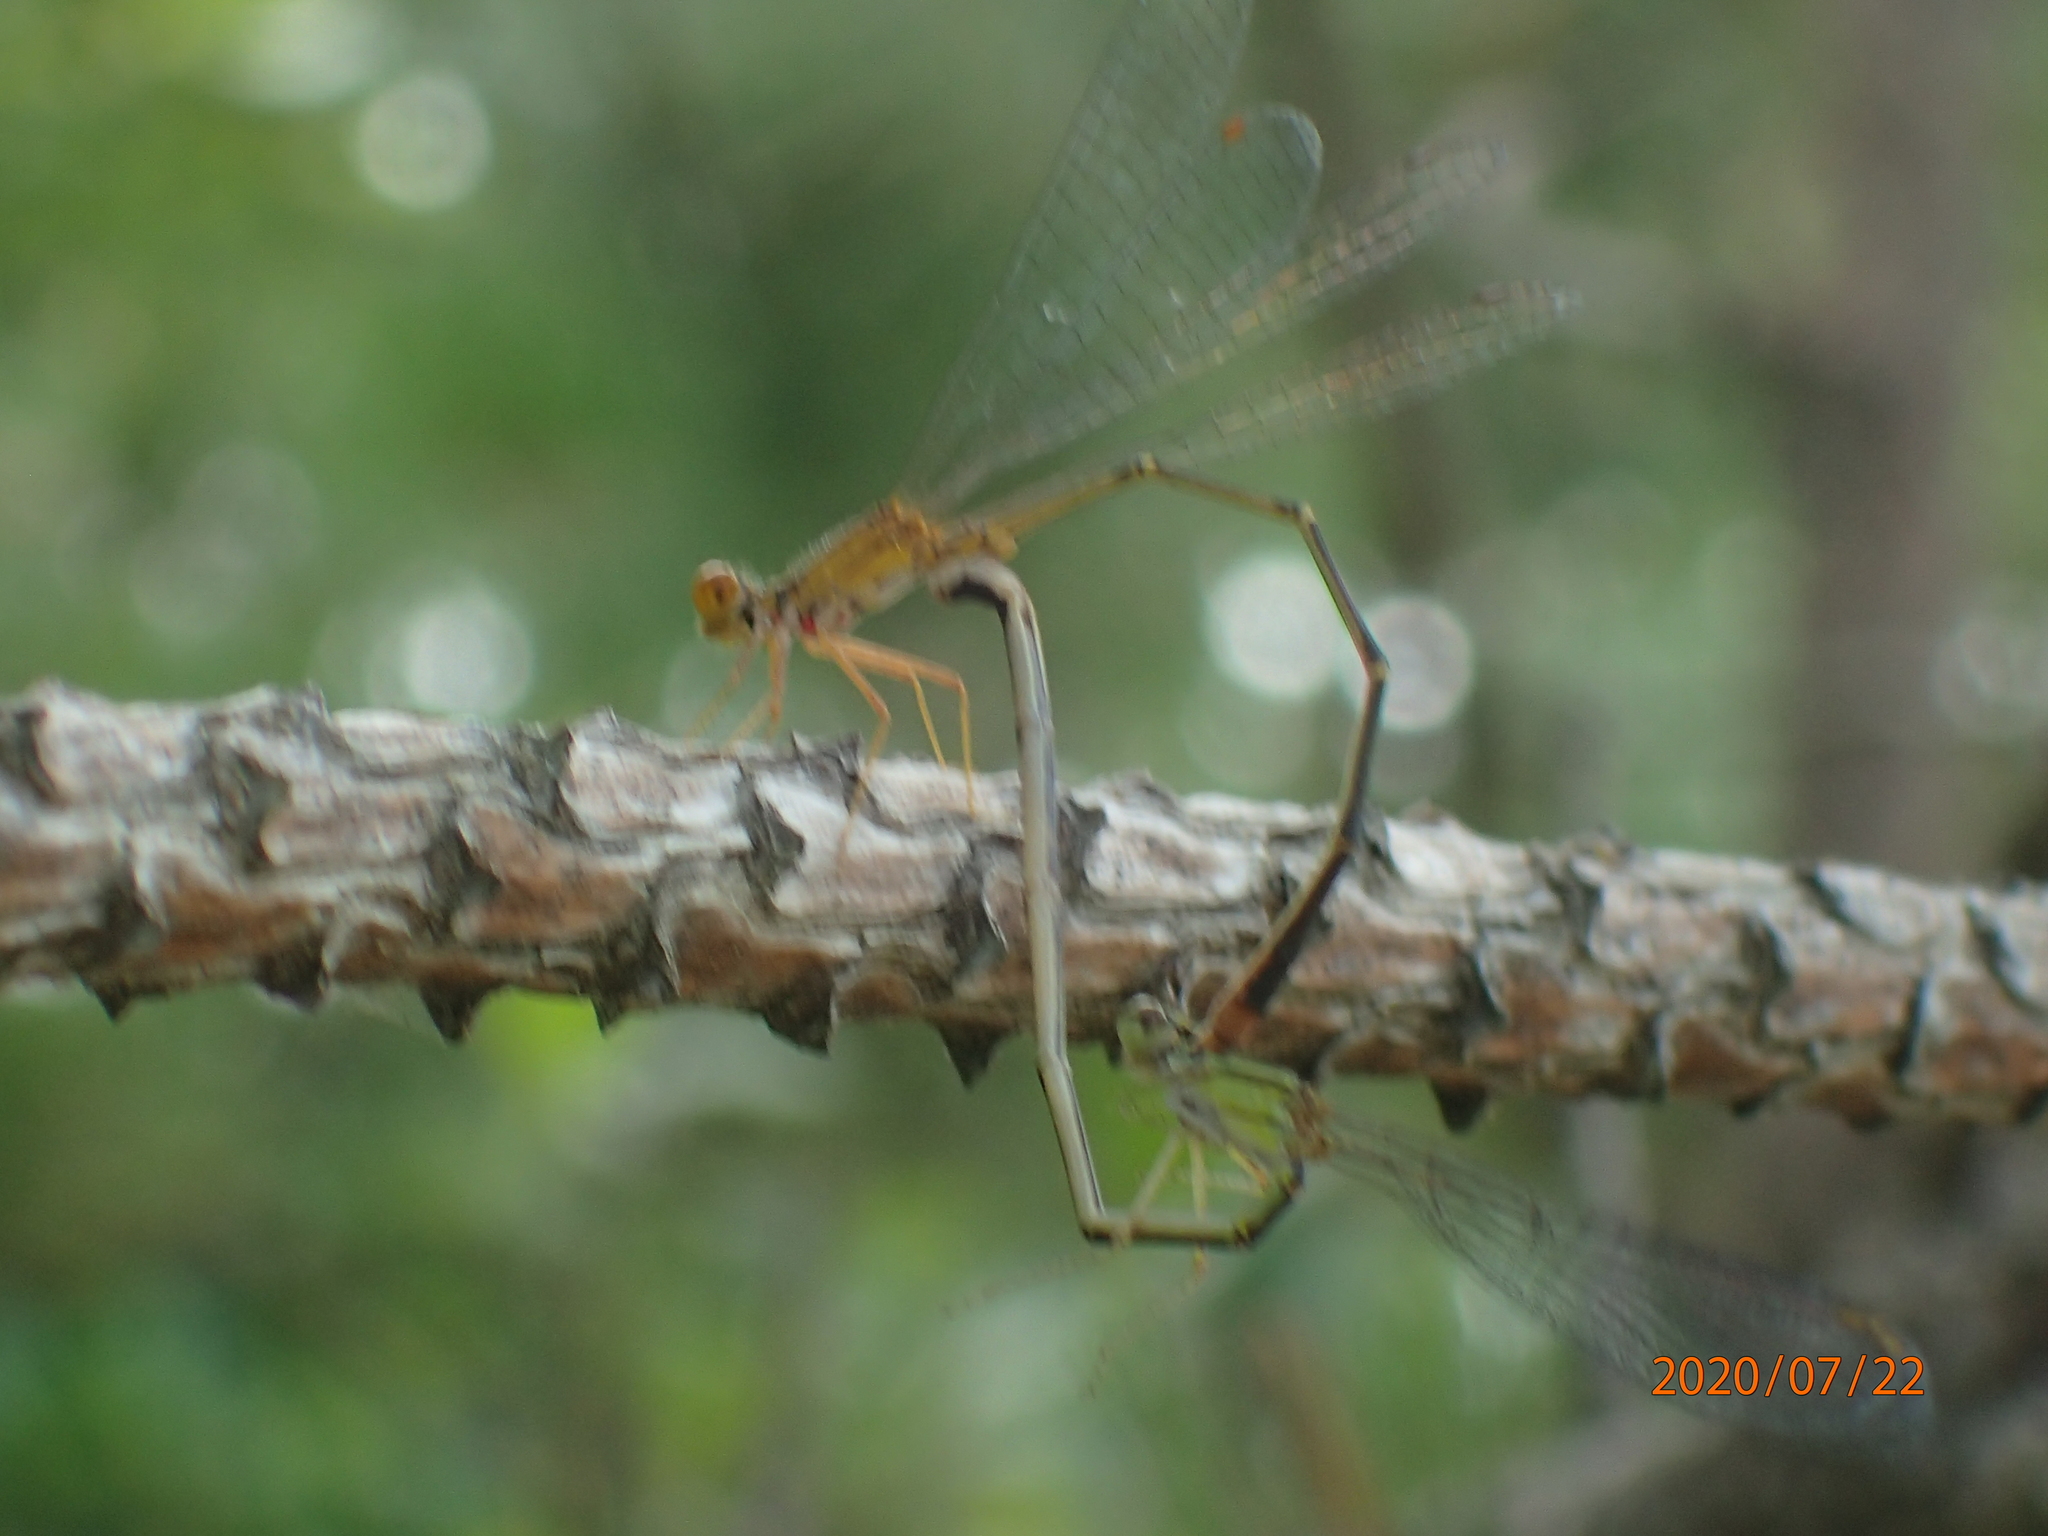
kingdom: Animalia
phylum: Arthropoda
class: Insecta
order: Odonata
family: Coenagrionidae
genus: Enallagma
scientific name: Enallagma signatum
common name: Orange bluet
